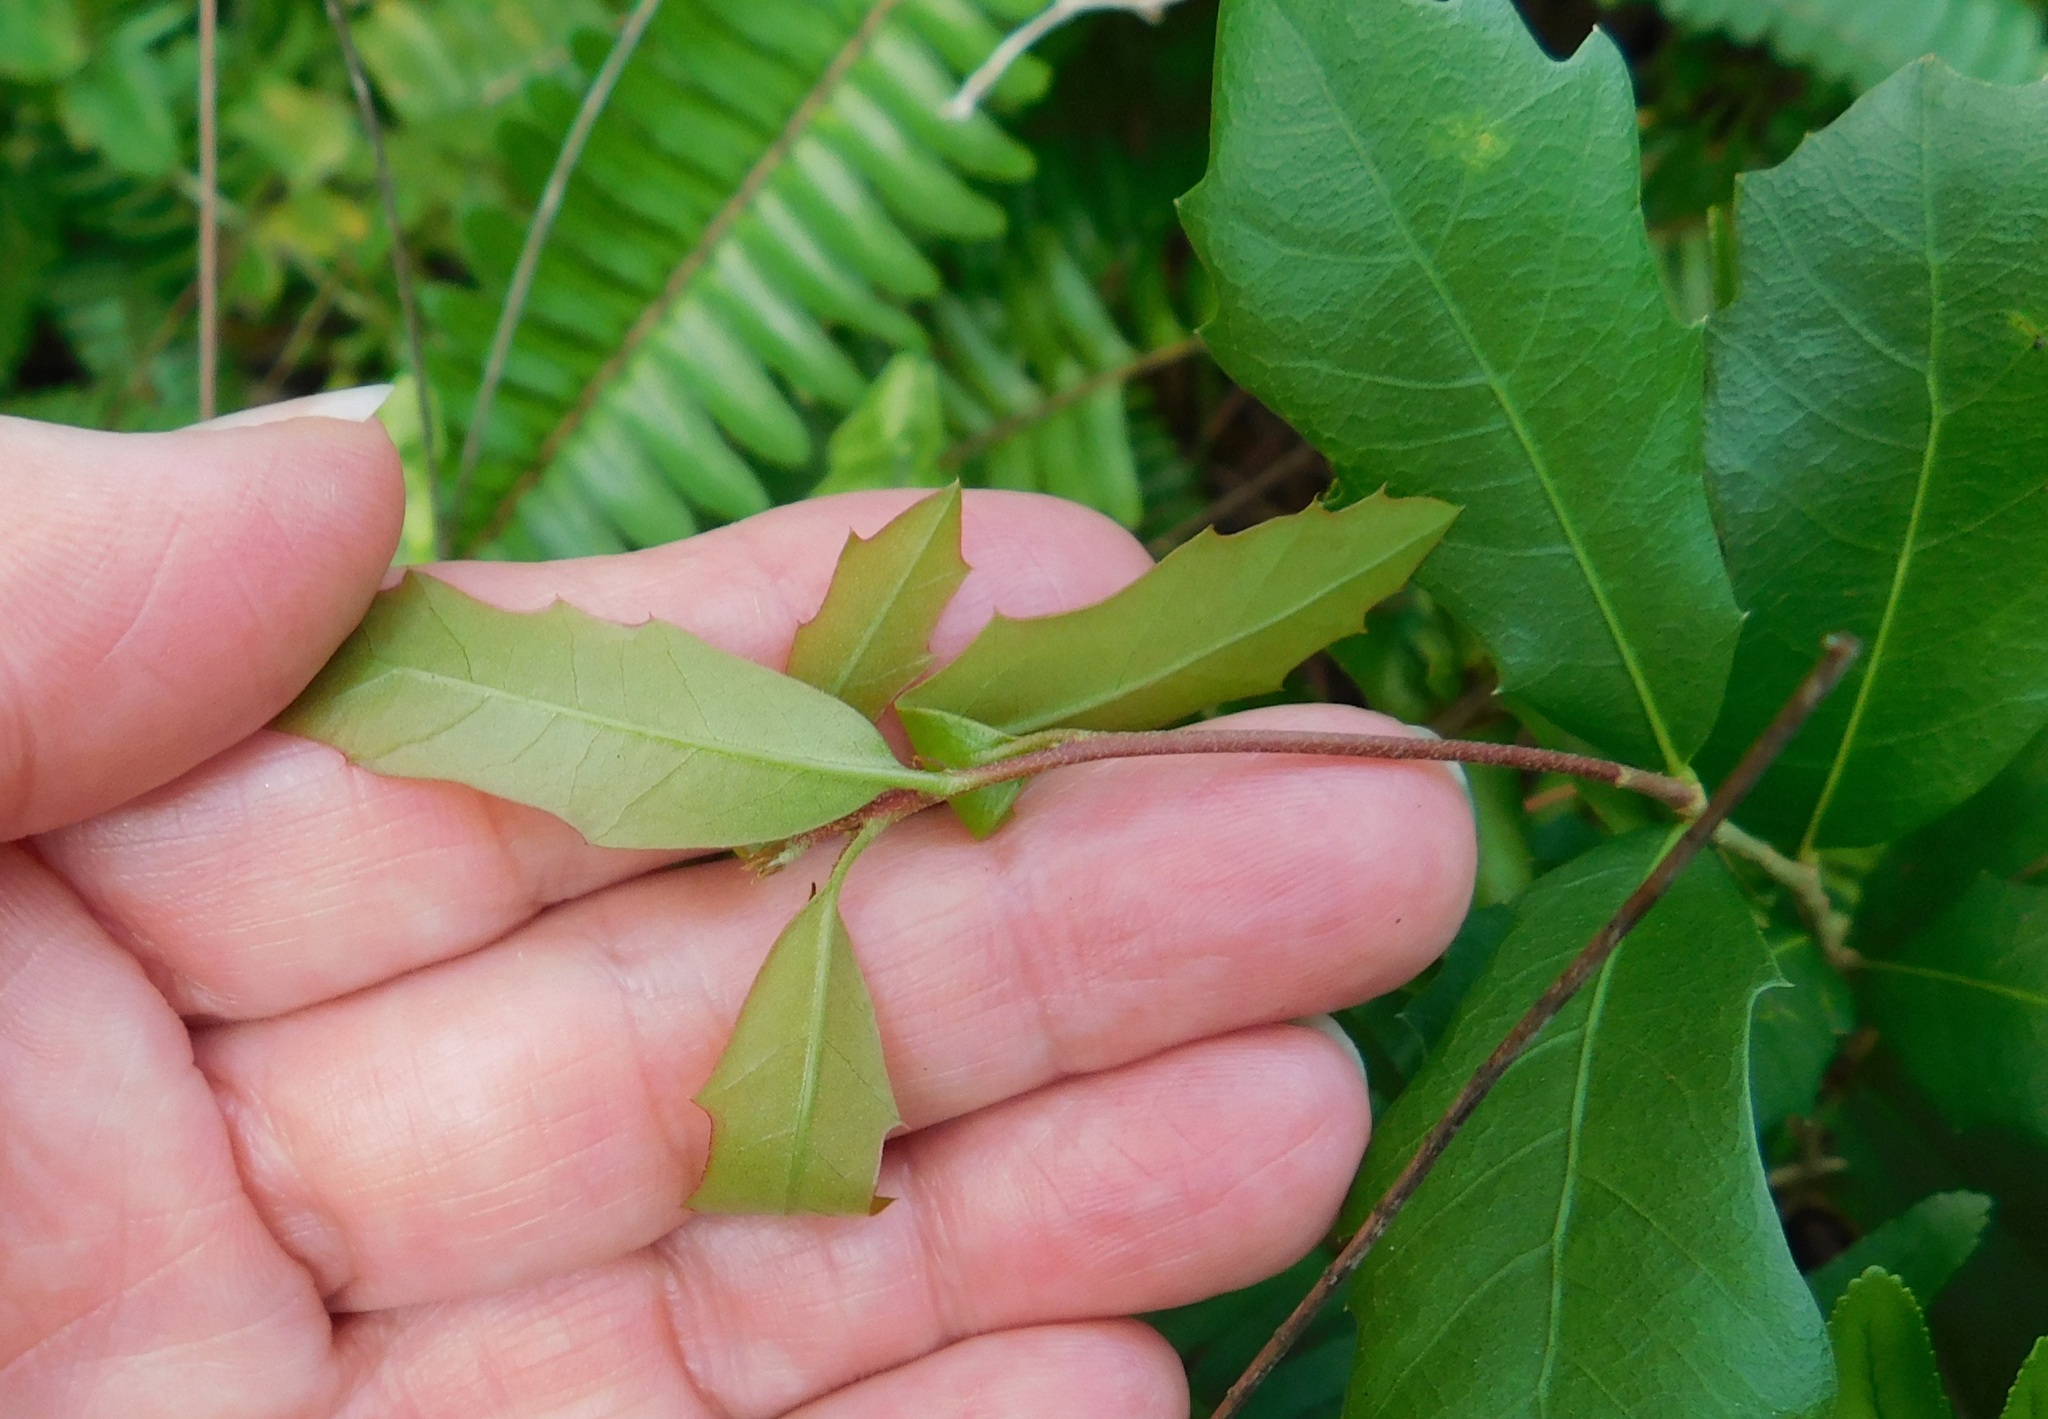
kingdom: Plantae
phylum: Tracheophyta
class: Magnoliopsida
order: Fagales
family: Fagaceae
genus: Quercus
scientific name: Quercus virginiana
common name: Southern live oak
